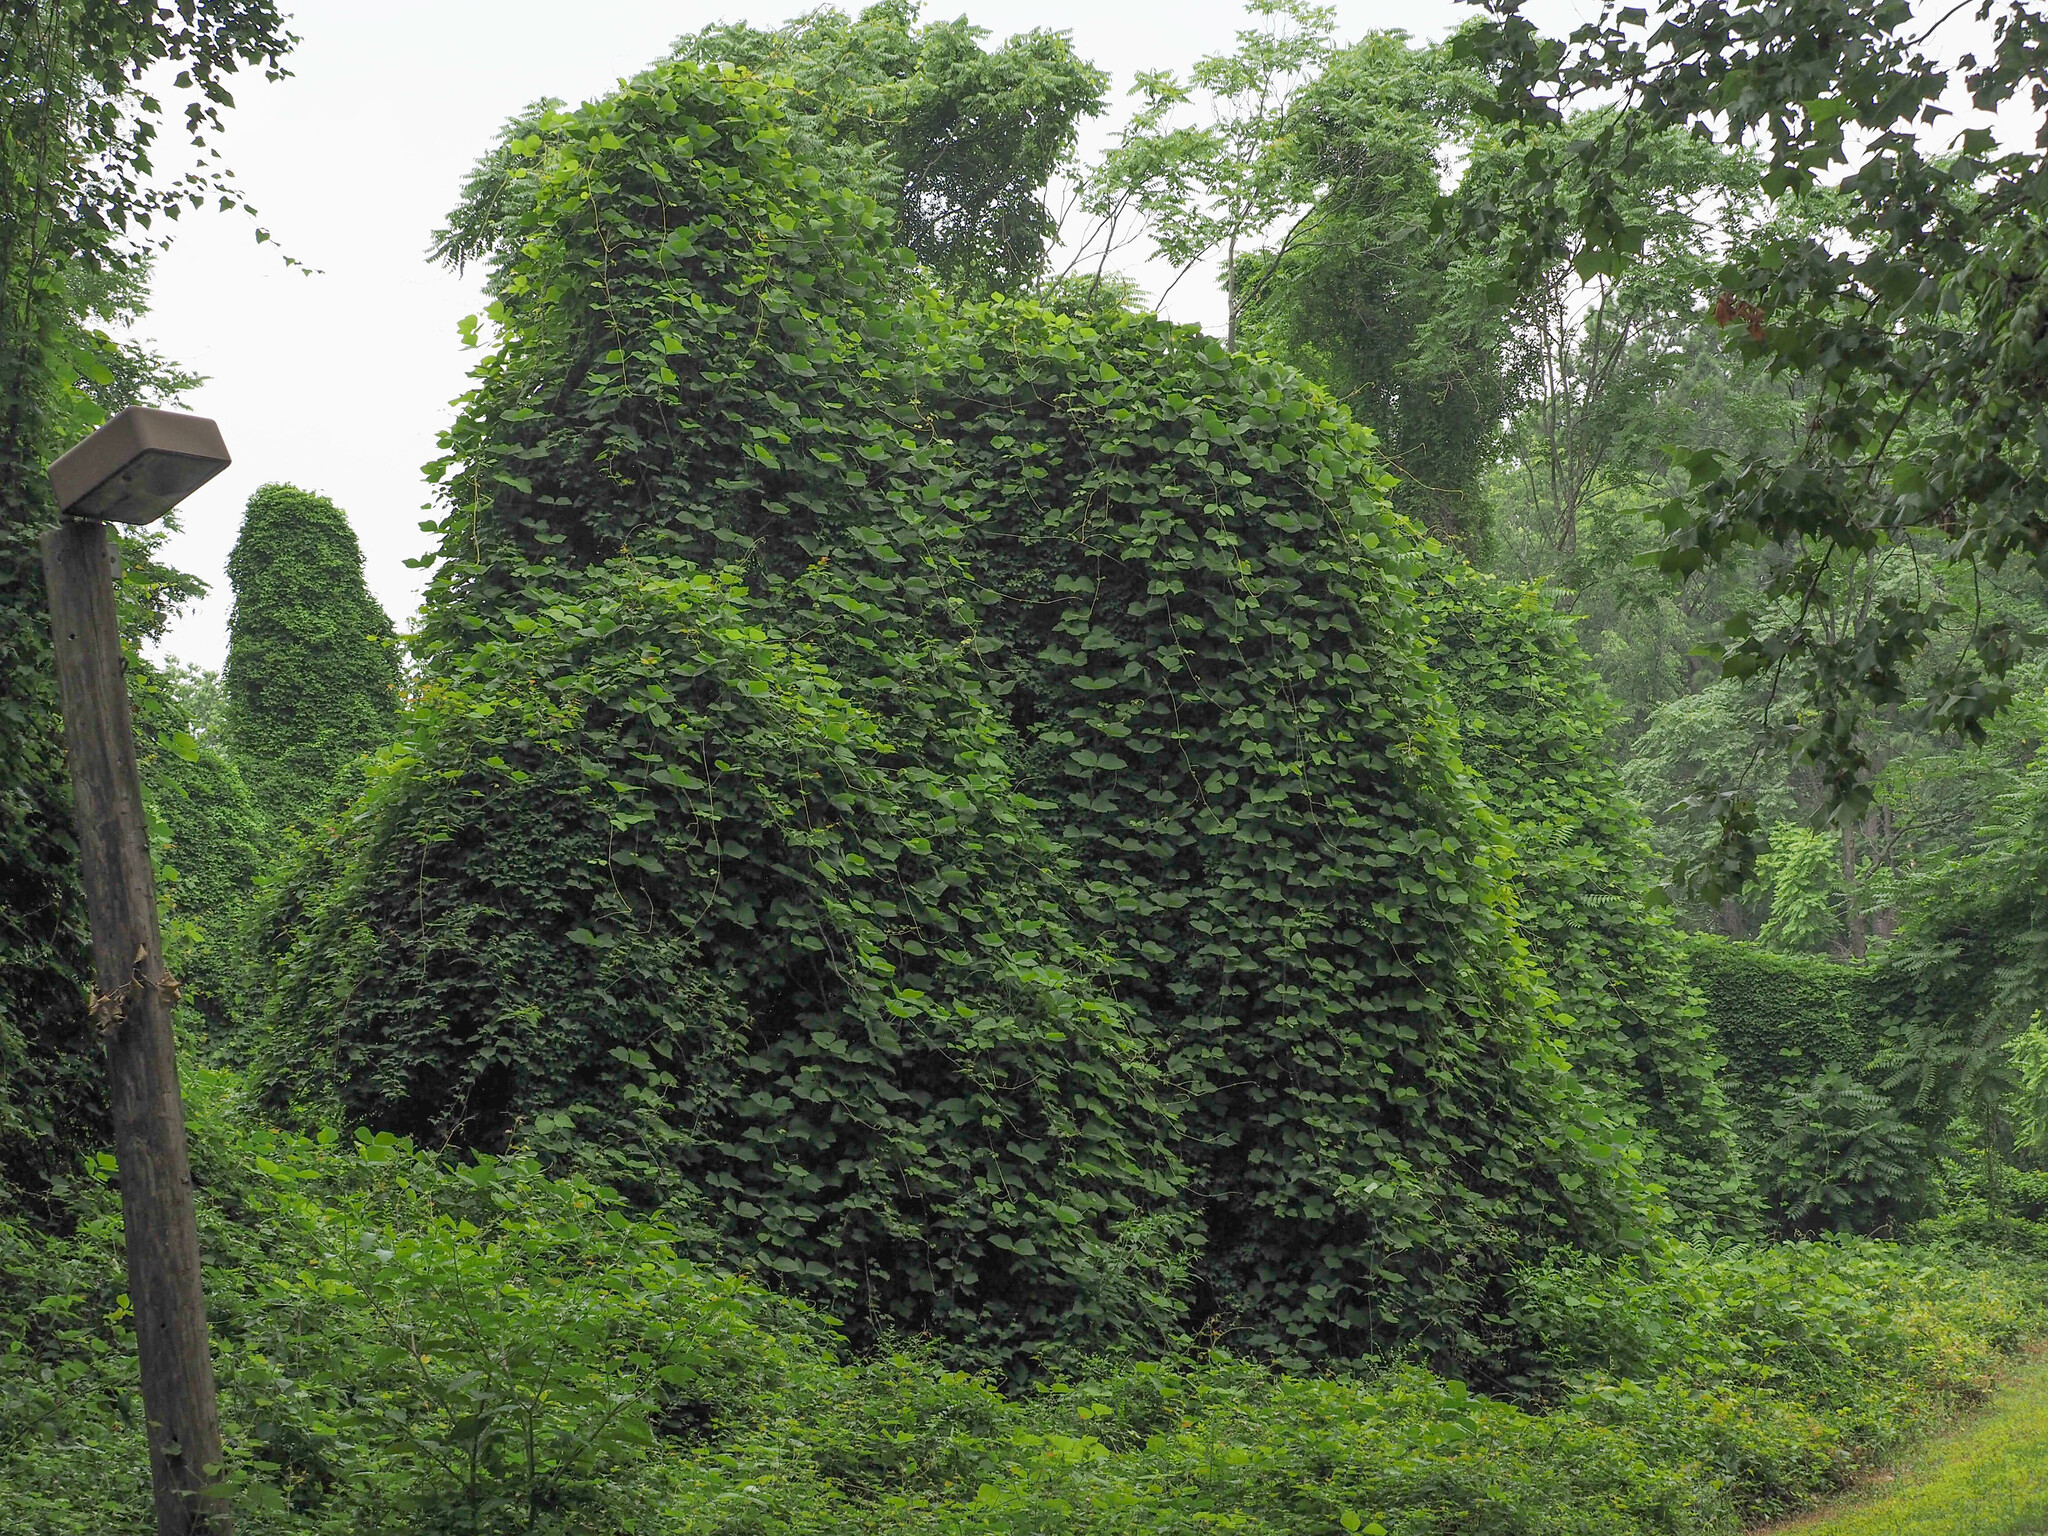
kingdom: Plantae
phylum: Tracheophyta
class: Magnoliopsida
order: Fabales
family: Fabaceae
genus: Pueraria
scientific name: Pueraria montana
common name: Kudzu
